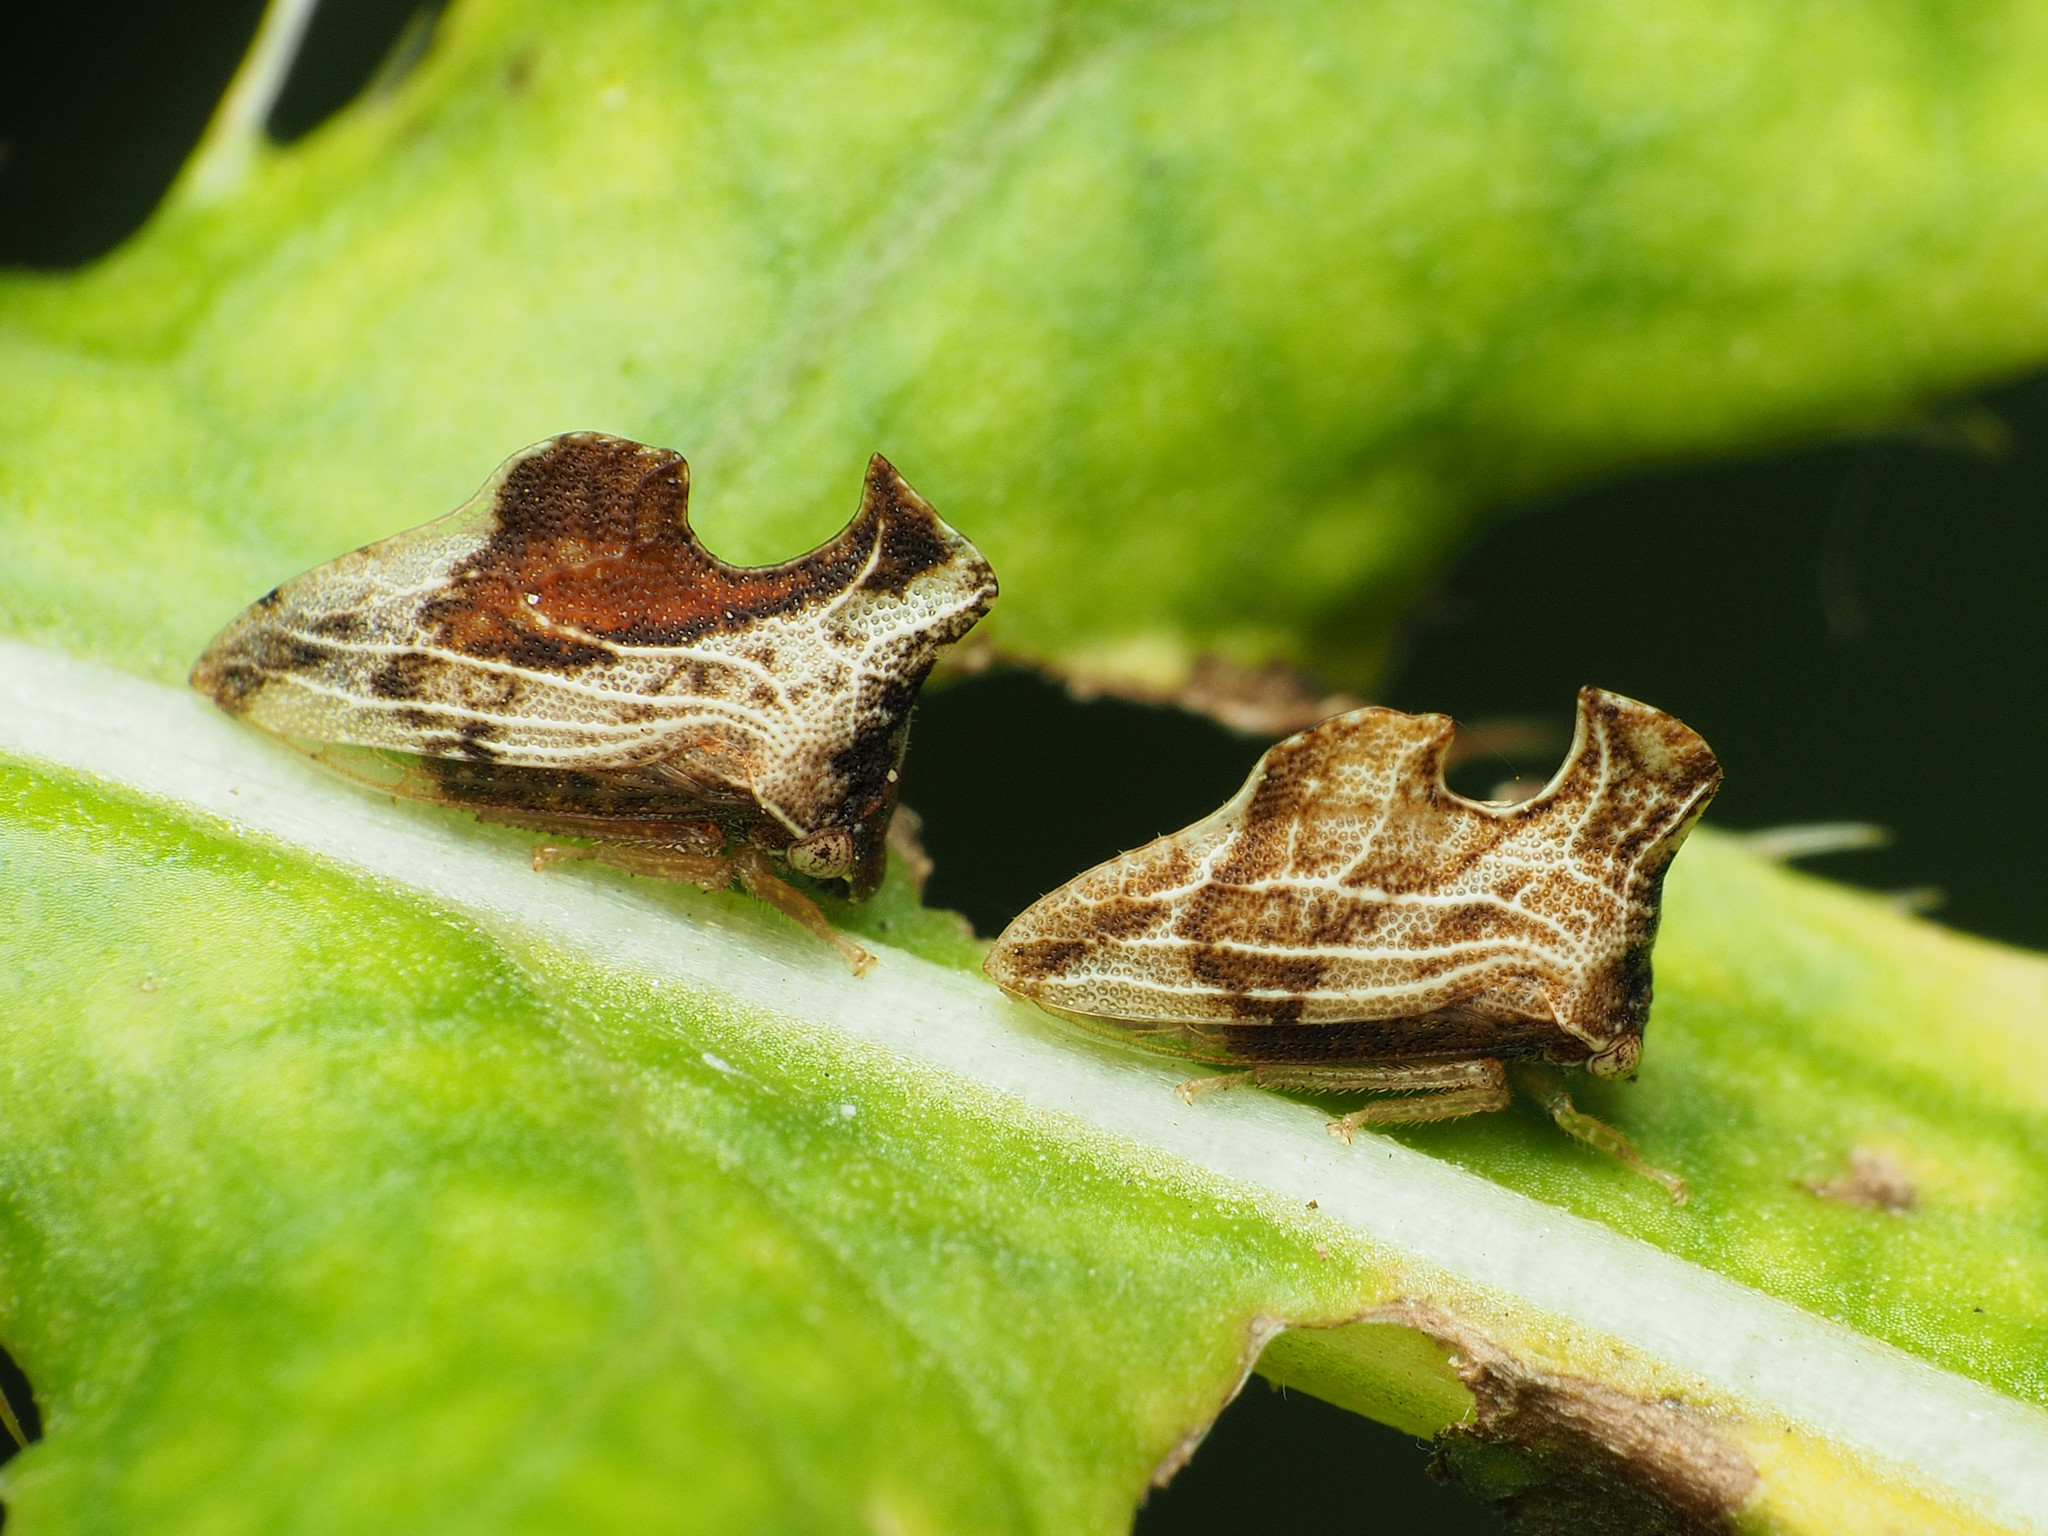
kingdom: Animalia
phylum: Arthropoda
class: Insecta
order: Hemiptera
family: Membracidae
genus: Entylia
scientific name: Entylia carinata
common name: Keeled treehopper
